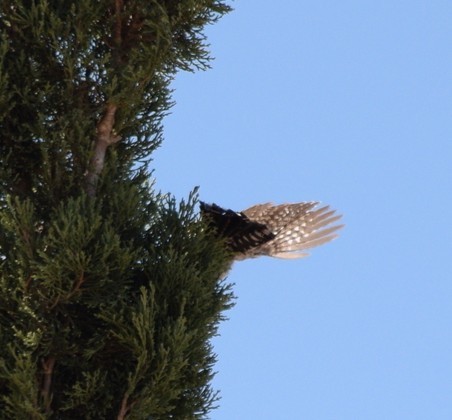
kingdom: Animalia
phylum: Chordata
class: Aves
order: Passeriformes
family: Troglodytidae
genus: Campylorhynchus
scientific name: Campylorhynchus brunneicapillus
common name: Cactus wren
